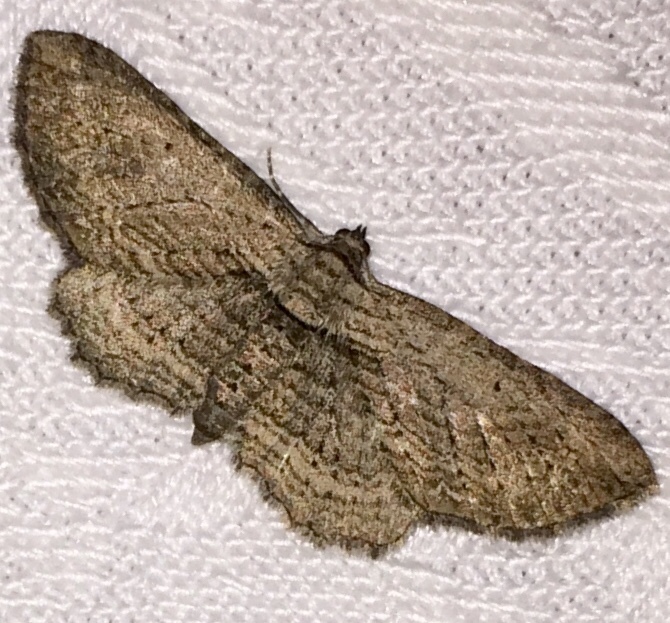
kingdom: Animalia
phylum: Arthropoda
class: Insecta
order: Lepidoptera
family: Geometridae
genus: Horisme
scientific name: Horisme intestinata
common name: Brown bark carpet
